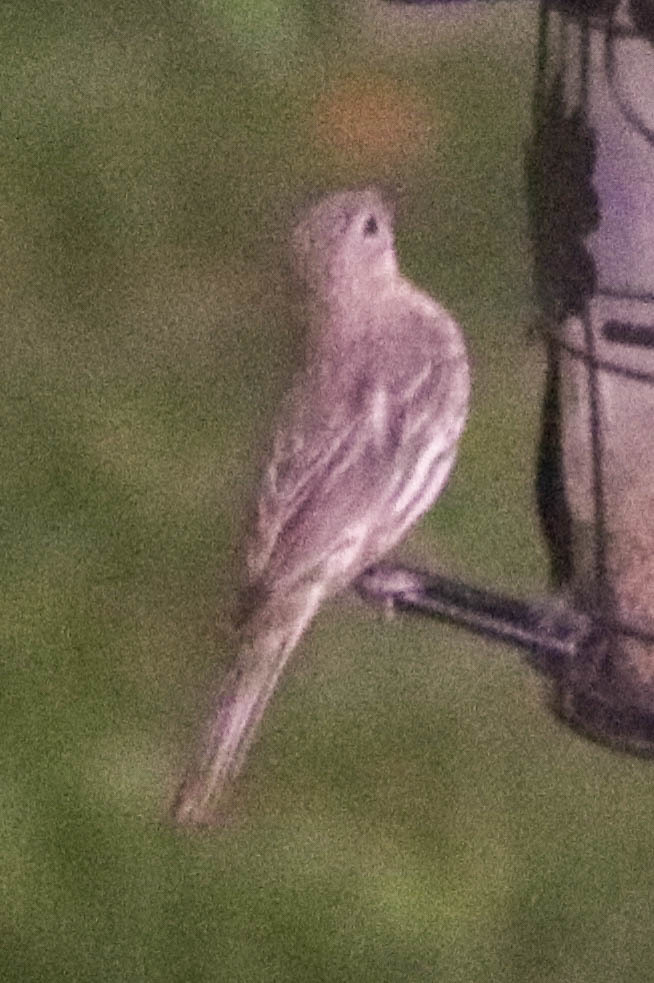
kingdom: Animalia
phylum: Chordata
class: Aves
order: Passeriformes
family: Fringillidae
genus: Haemorhous
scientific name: Haemorhous mexicanus
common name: House finch
